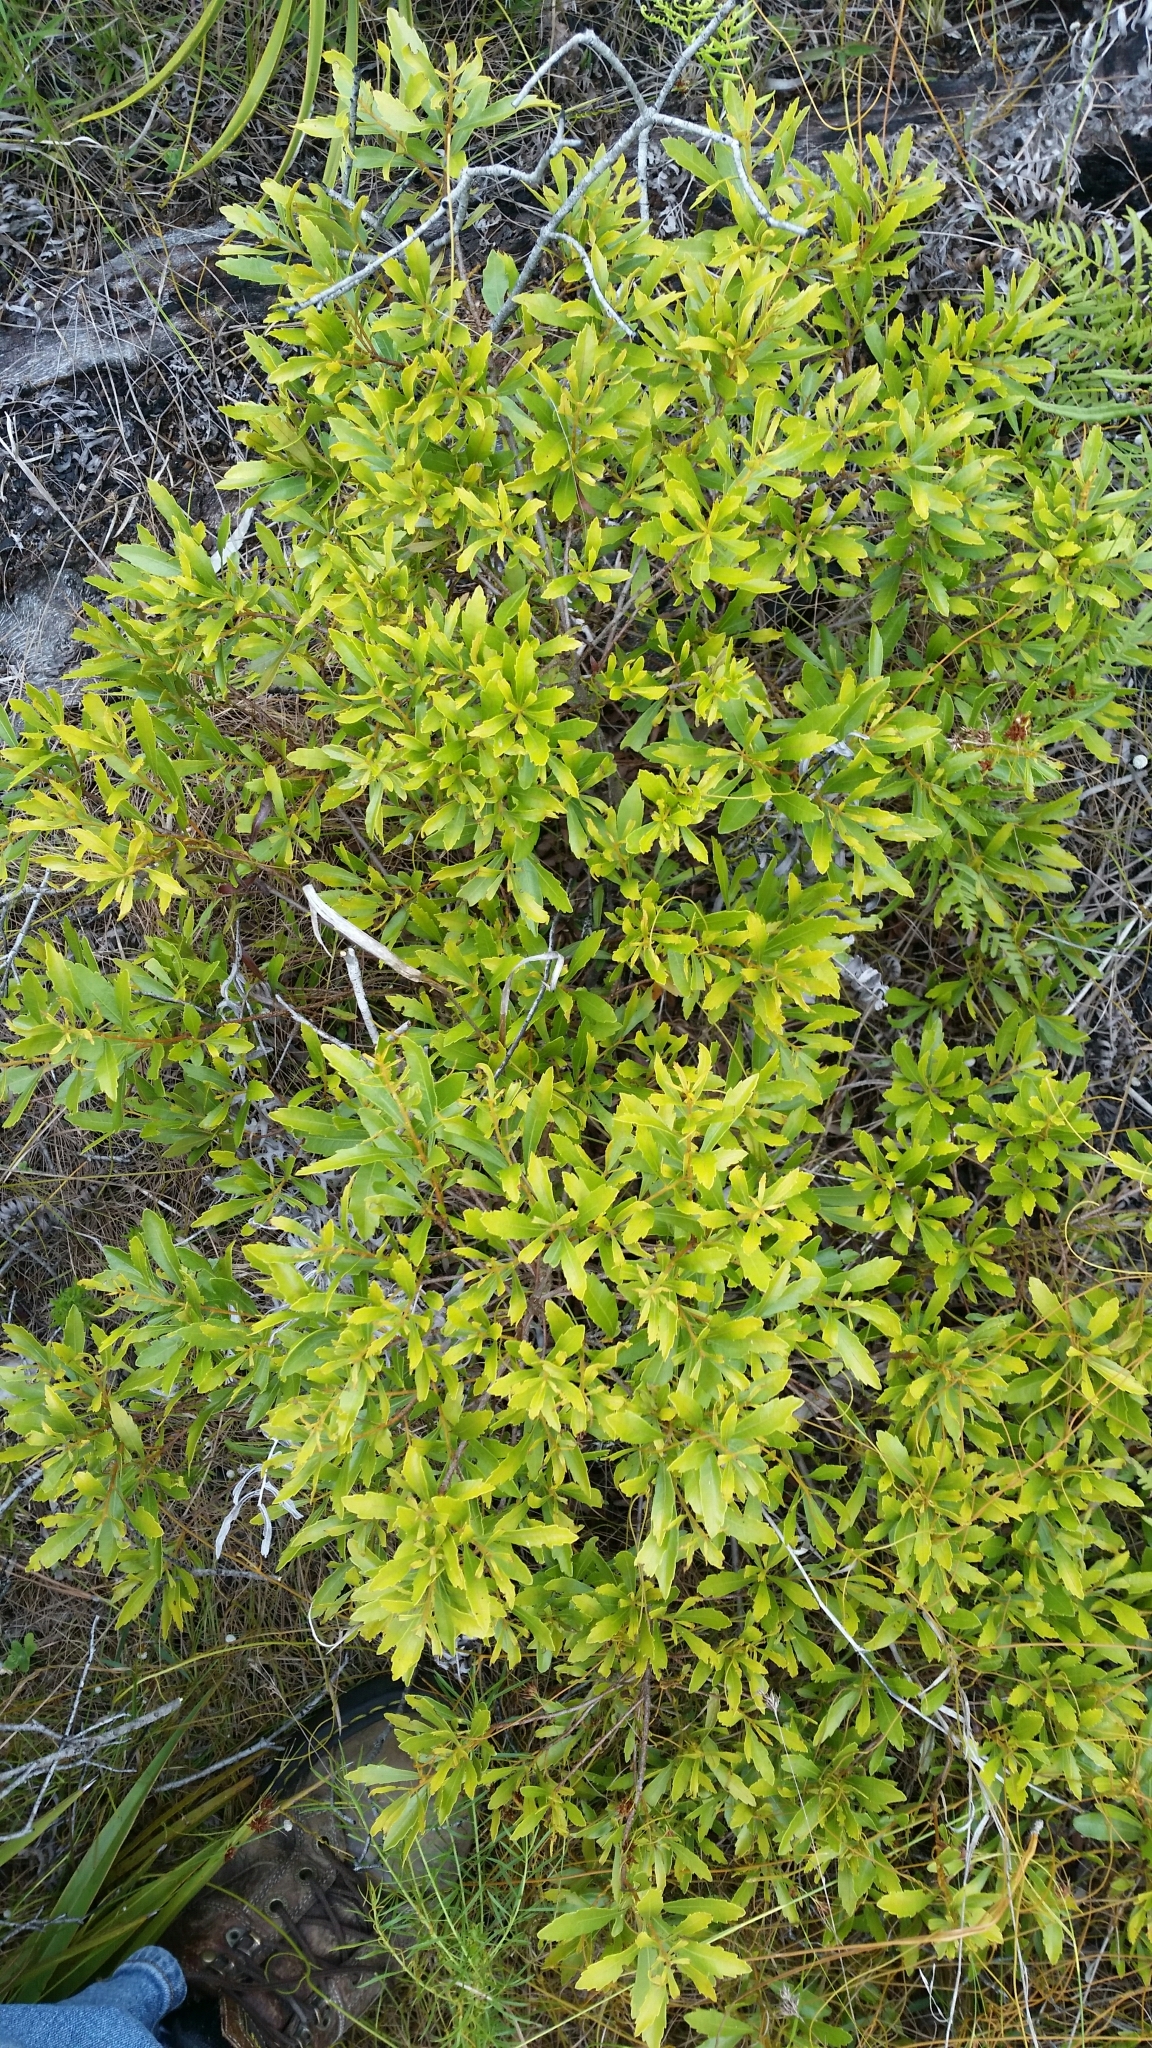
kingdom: Plantae
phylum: Tracheophyta
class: Magnoliopsida
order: Fagales
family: Myricaceae
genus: Morella
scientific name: Morella cerifera
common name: Wax myrtle
